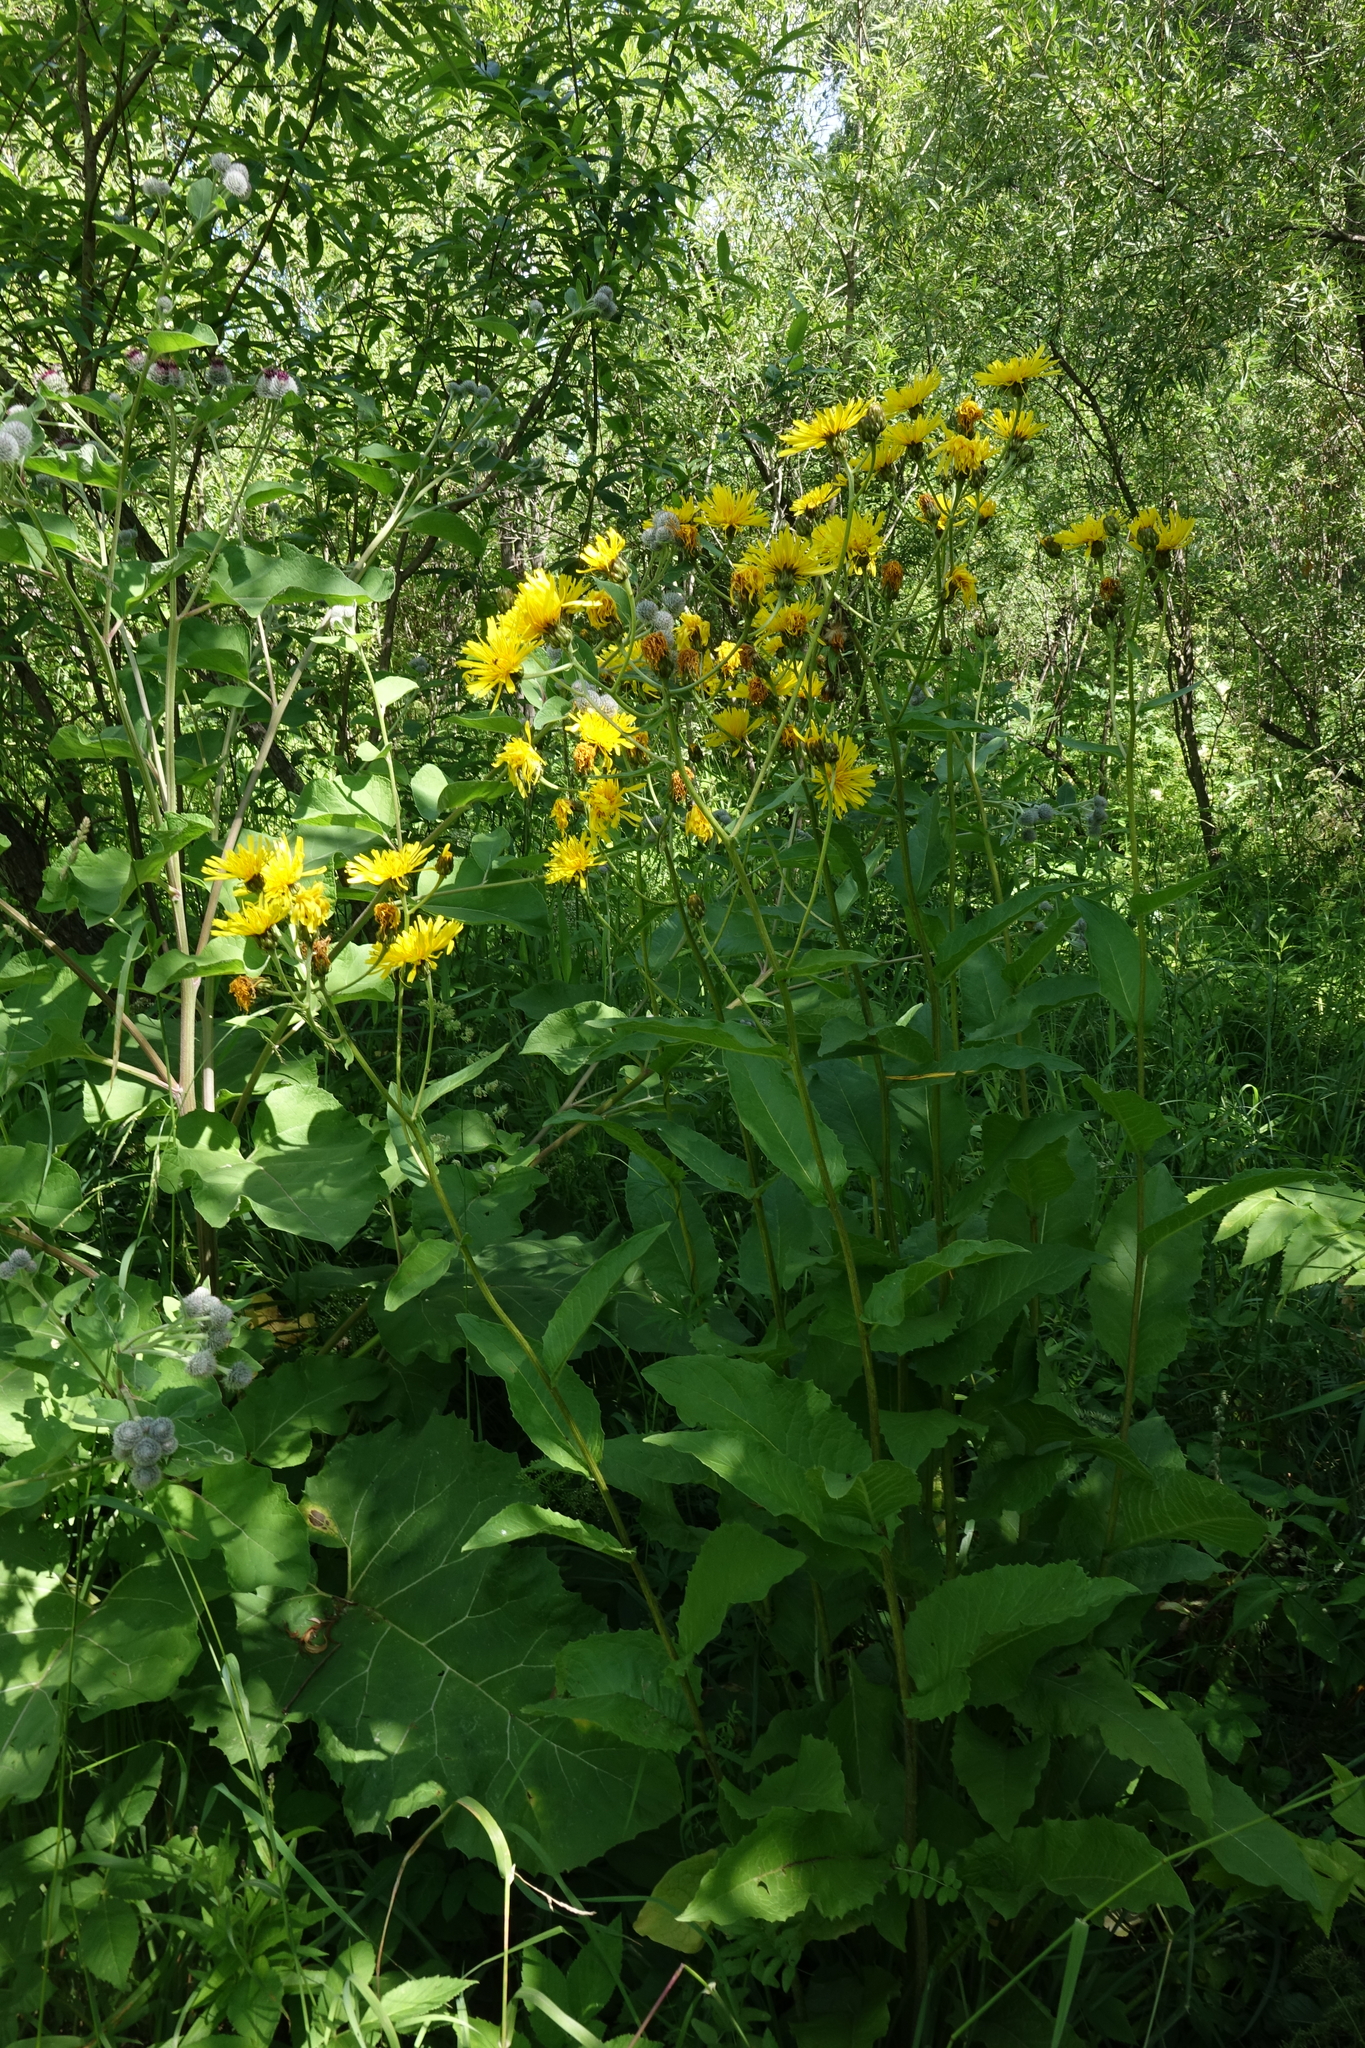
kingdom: Plantae
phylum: Tracheophyta
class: Magnoliopsida
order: Asterales
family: Asteraceae
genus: Crepis
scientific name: Crepis sibirica
